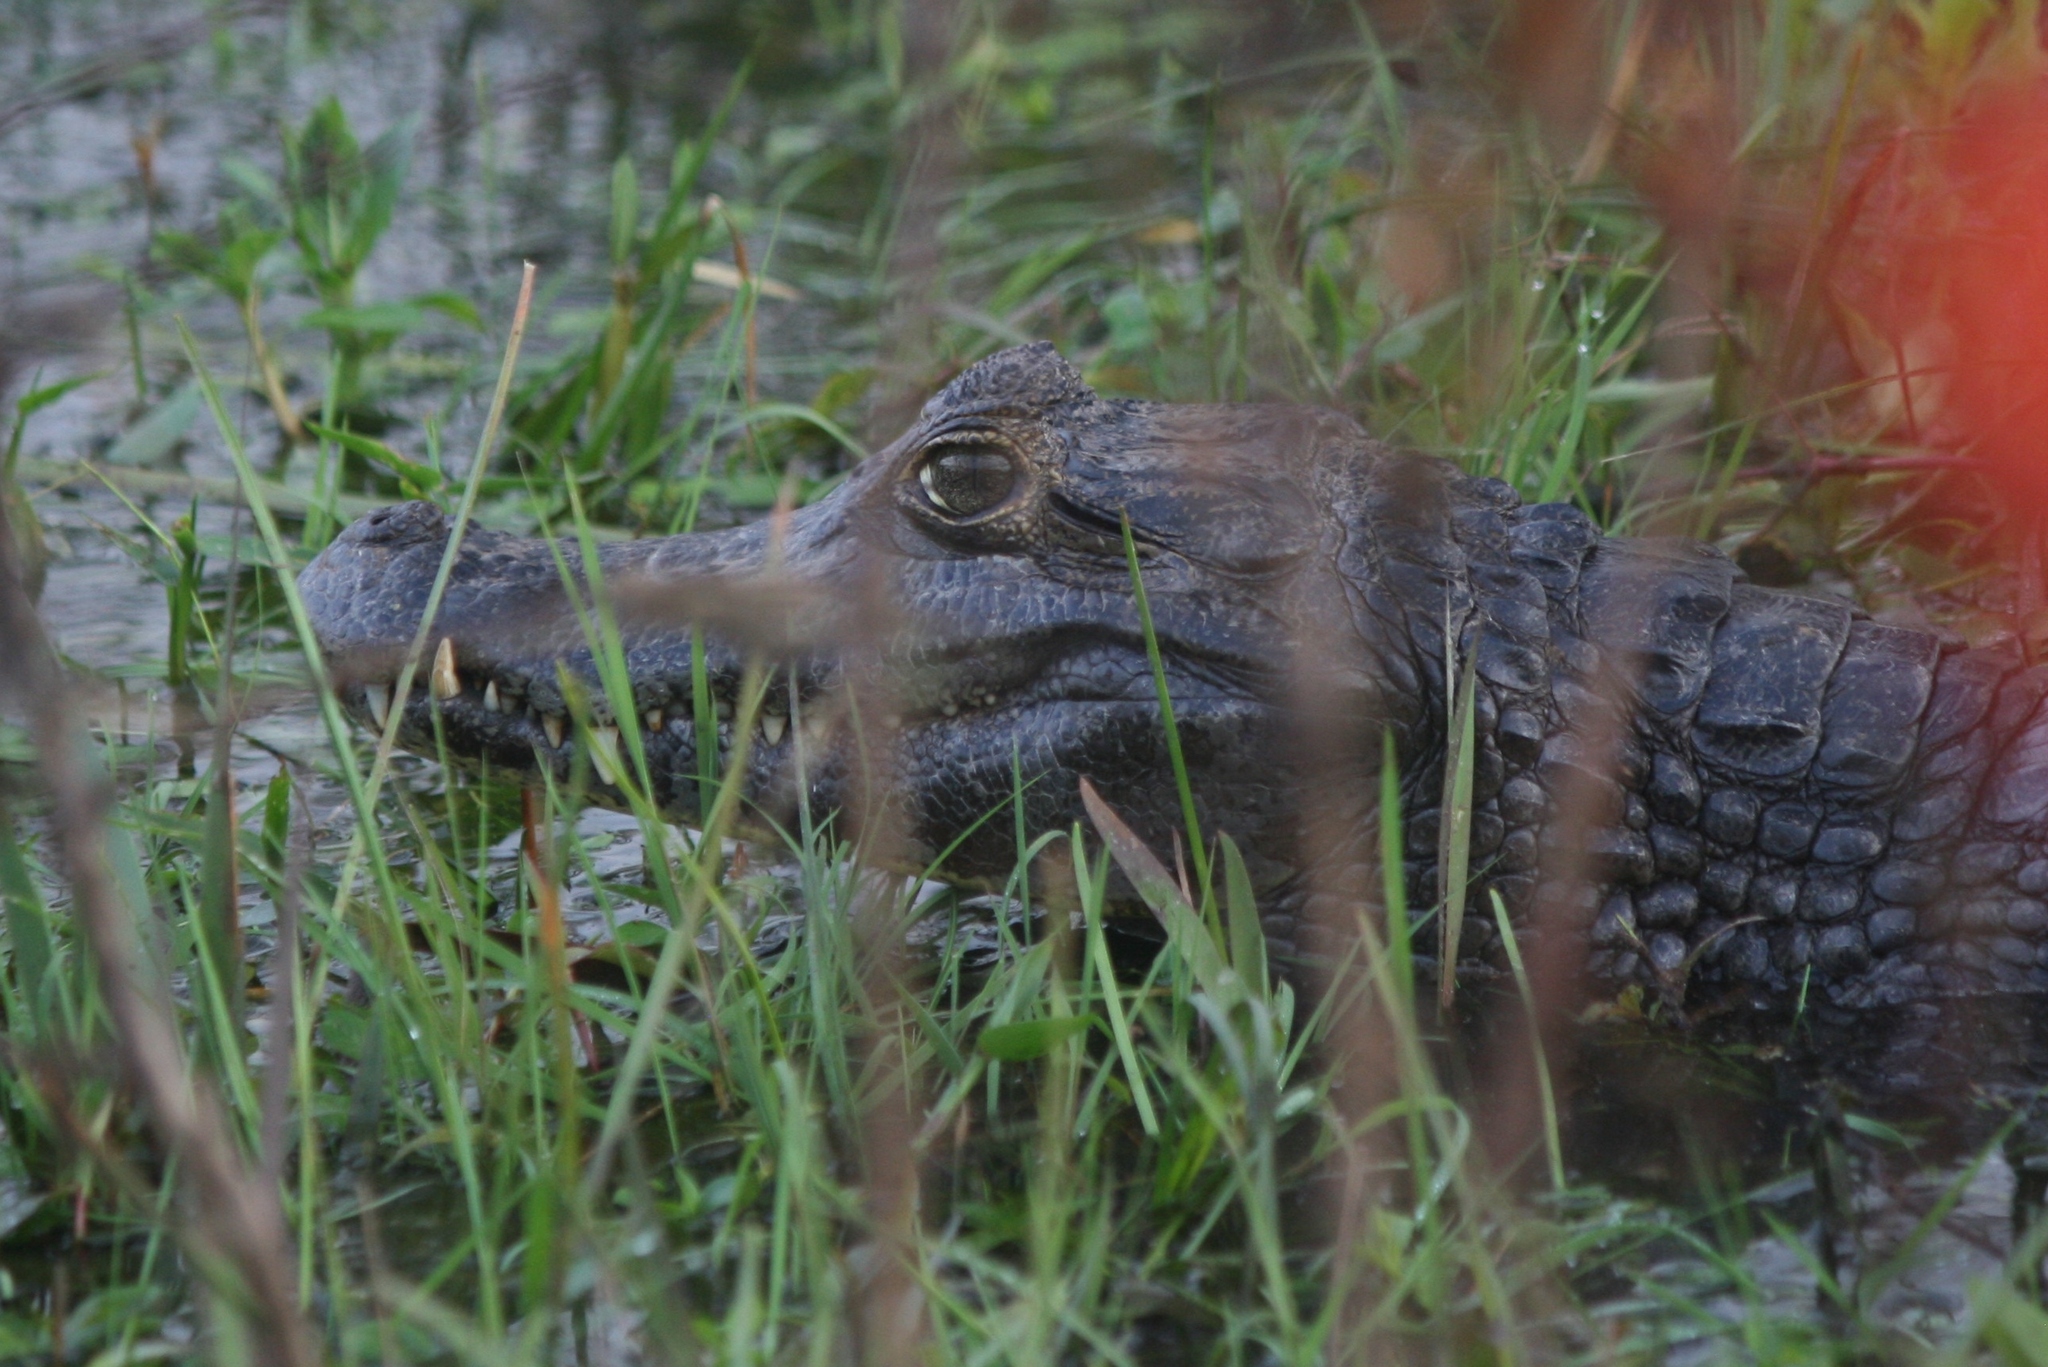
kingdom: Animalia
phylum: Chordata
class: Crocodylia
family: Alligatoridae
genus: Caiman
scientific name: Caiman yacare
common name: Yacare caiman
